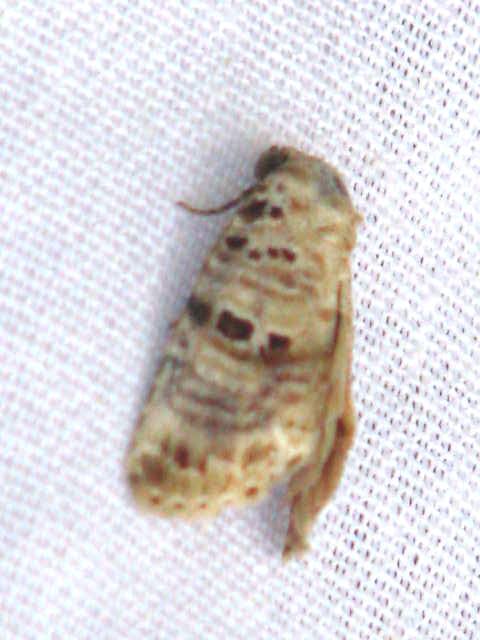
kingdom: Animalia
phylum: Arthropoda
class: Insecta
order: Lepidoptera
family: Noctuidae
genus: Diastema
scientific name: Diastema tigris
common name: Lantana moth
